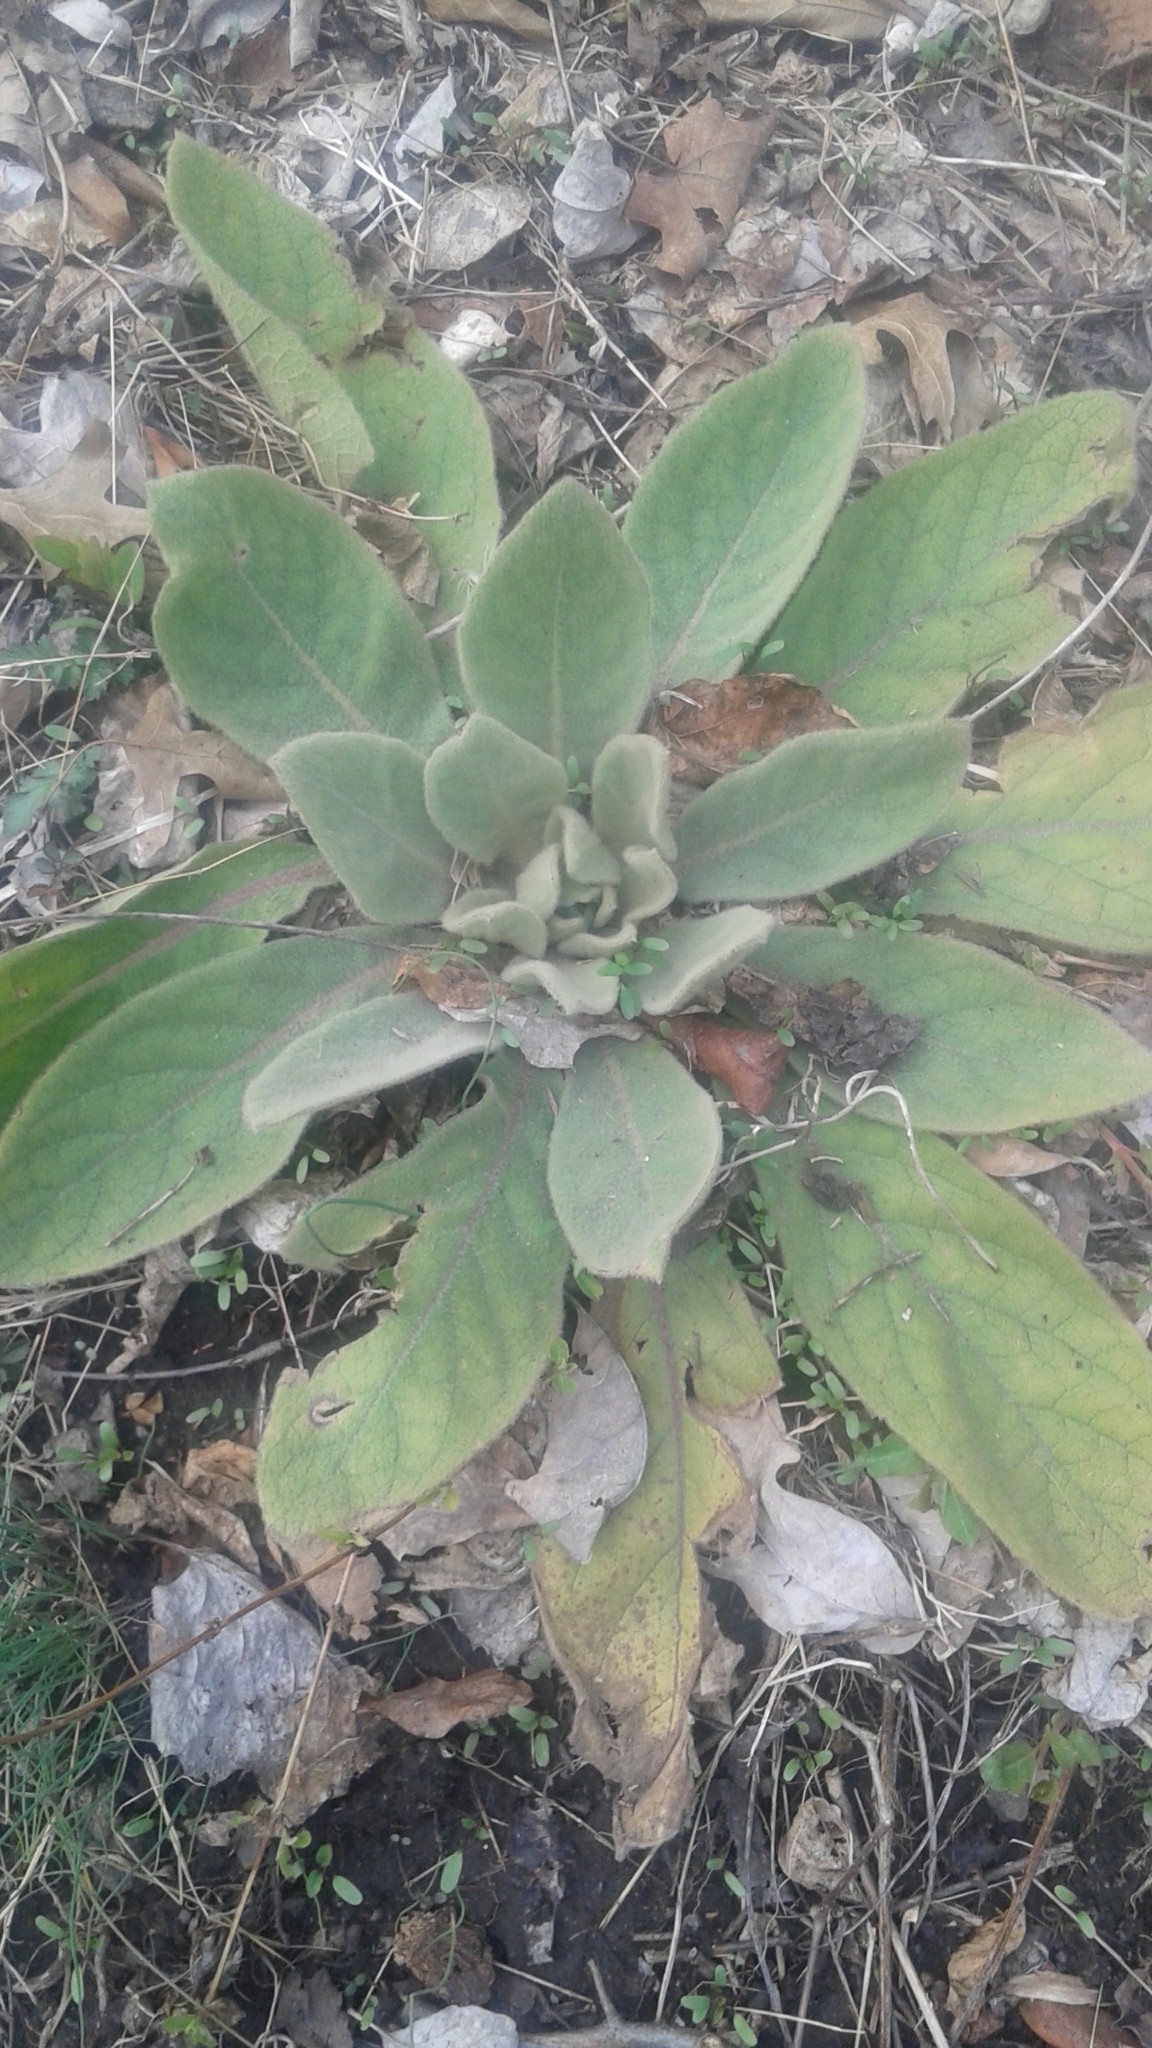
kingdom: Plantae
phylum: Tracheophyta
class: Magnoliopsida
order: Lamiales
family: Scrophulariaceae
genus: Verbascum
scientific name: Verbascum thapsus
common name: Common mullein
